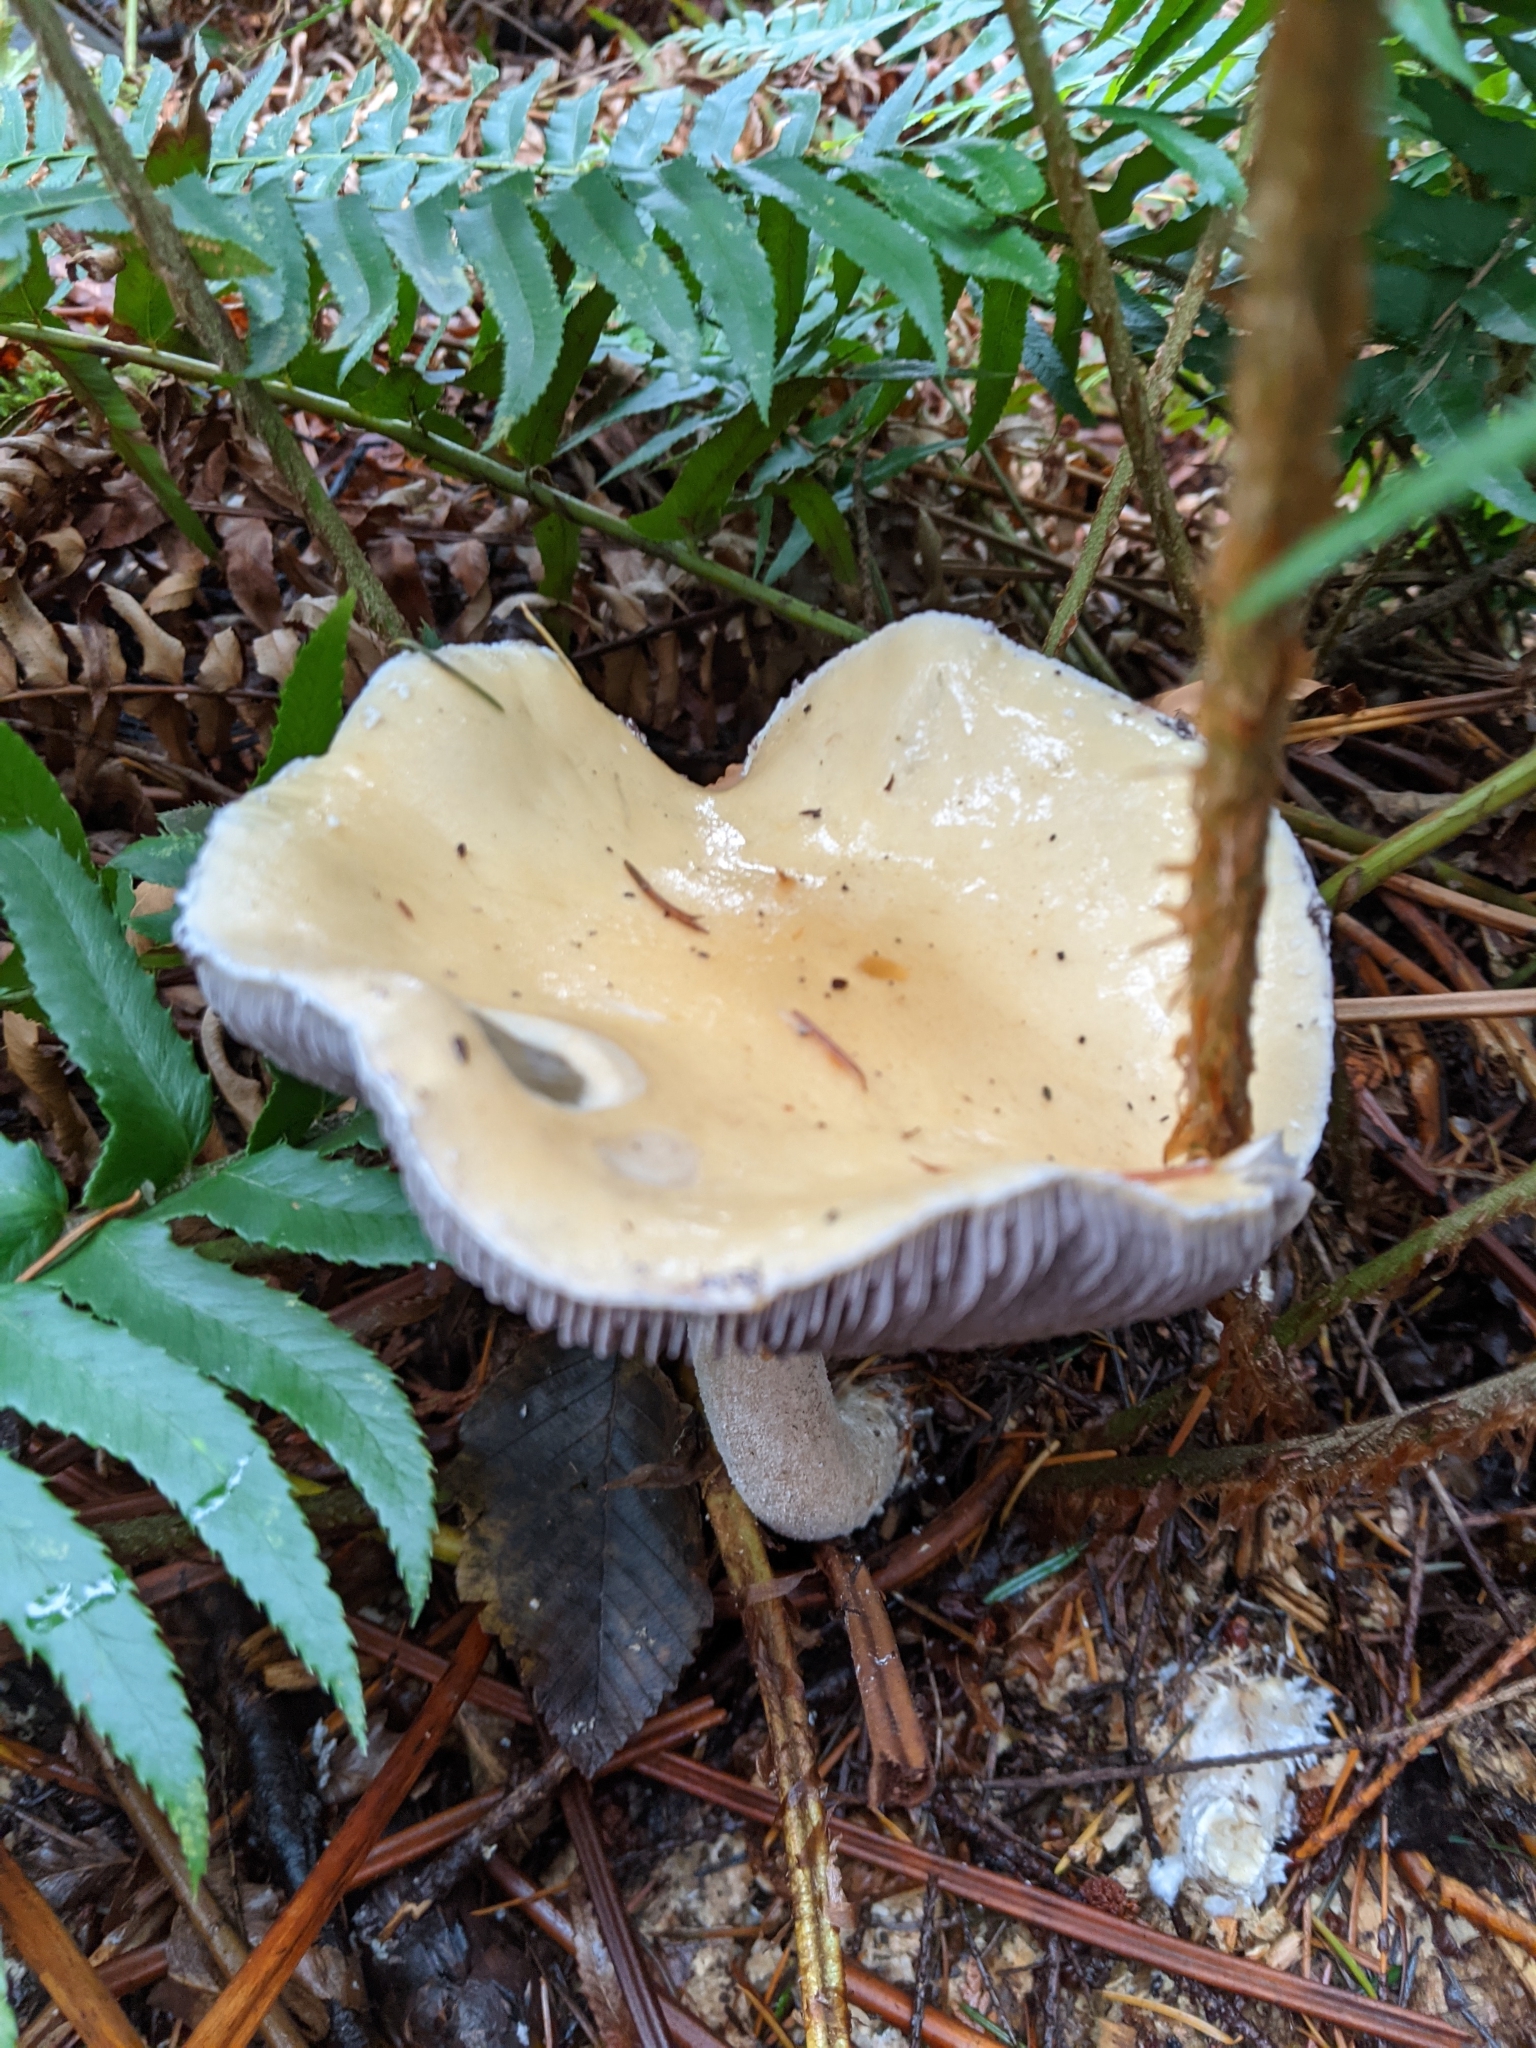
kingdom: Fungi
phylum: Basidiomycota
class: Agaricomycetes
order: Agaricales
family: Strophariaceae
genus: Stropharia
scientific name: Stropharia ambigua
